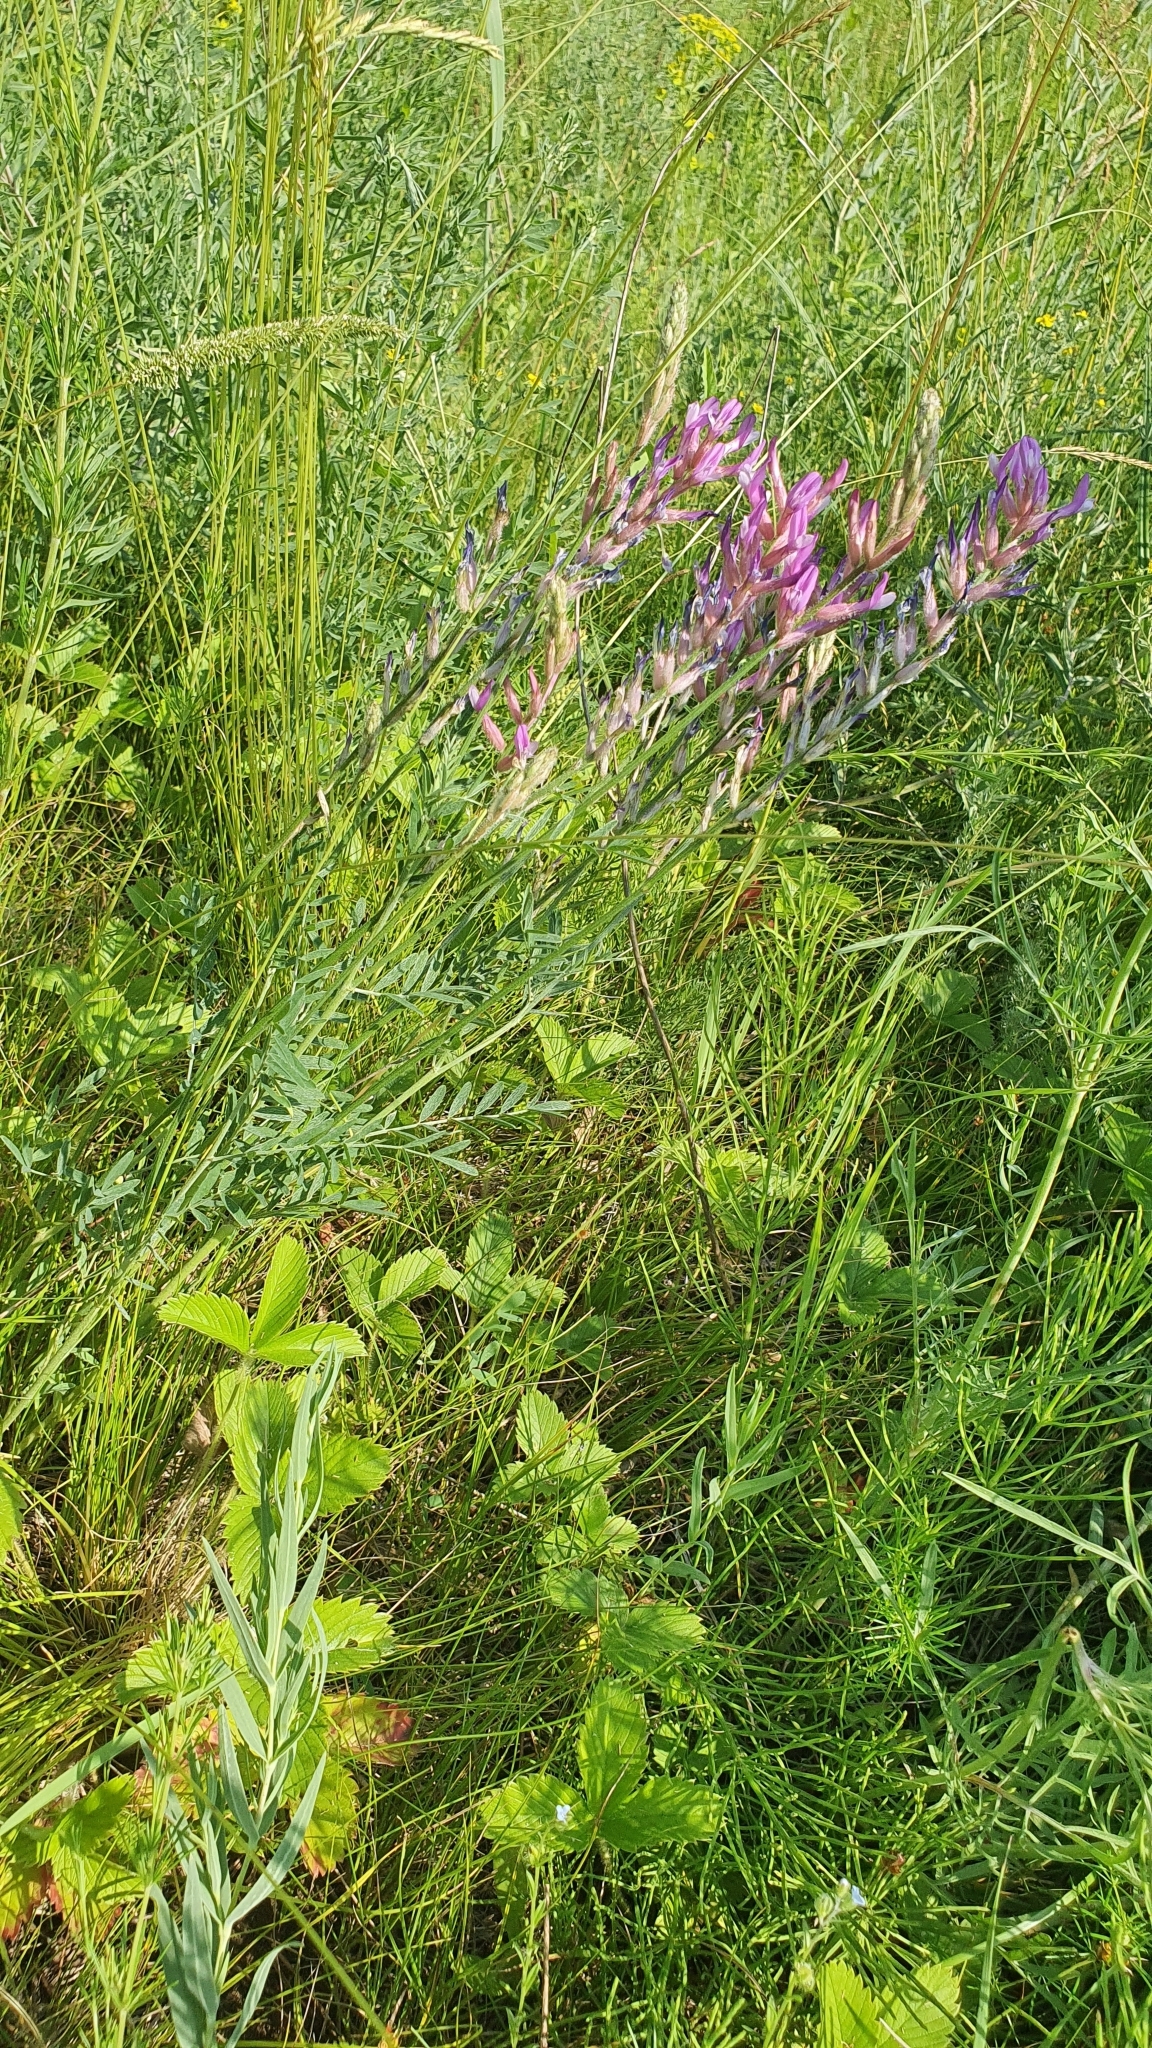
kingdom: Plantae
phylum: Tracheophyta
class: Magnoliopsida
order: Fabales
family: Fabaceae
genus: Astragalus
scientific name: Astragalus varius
